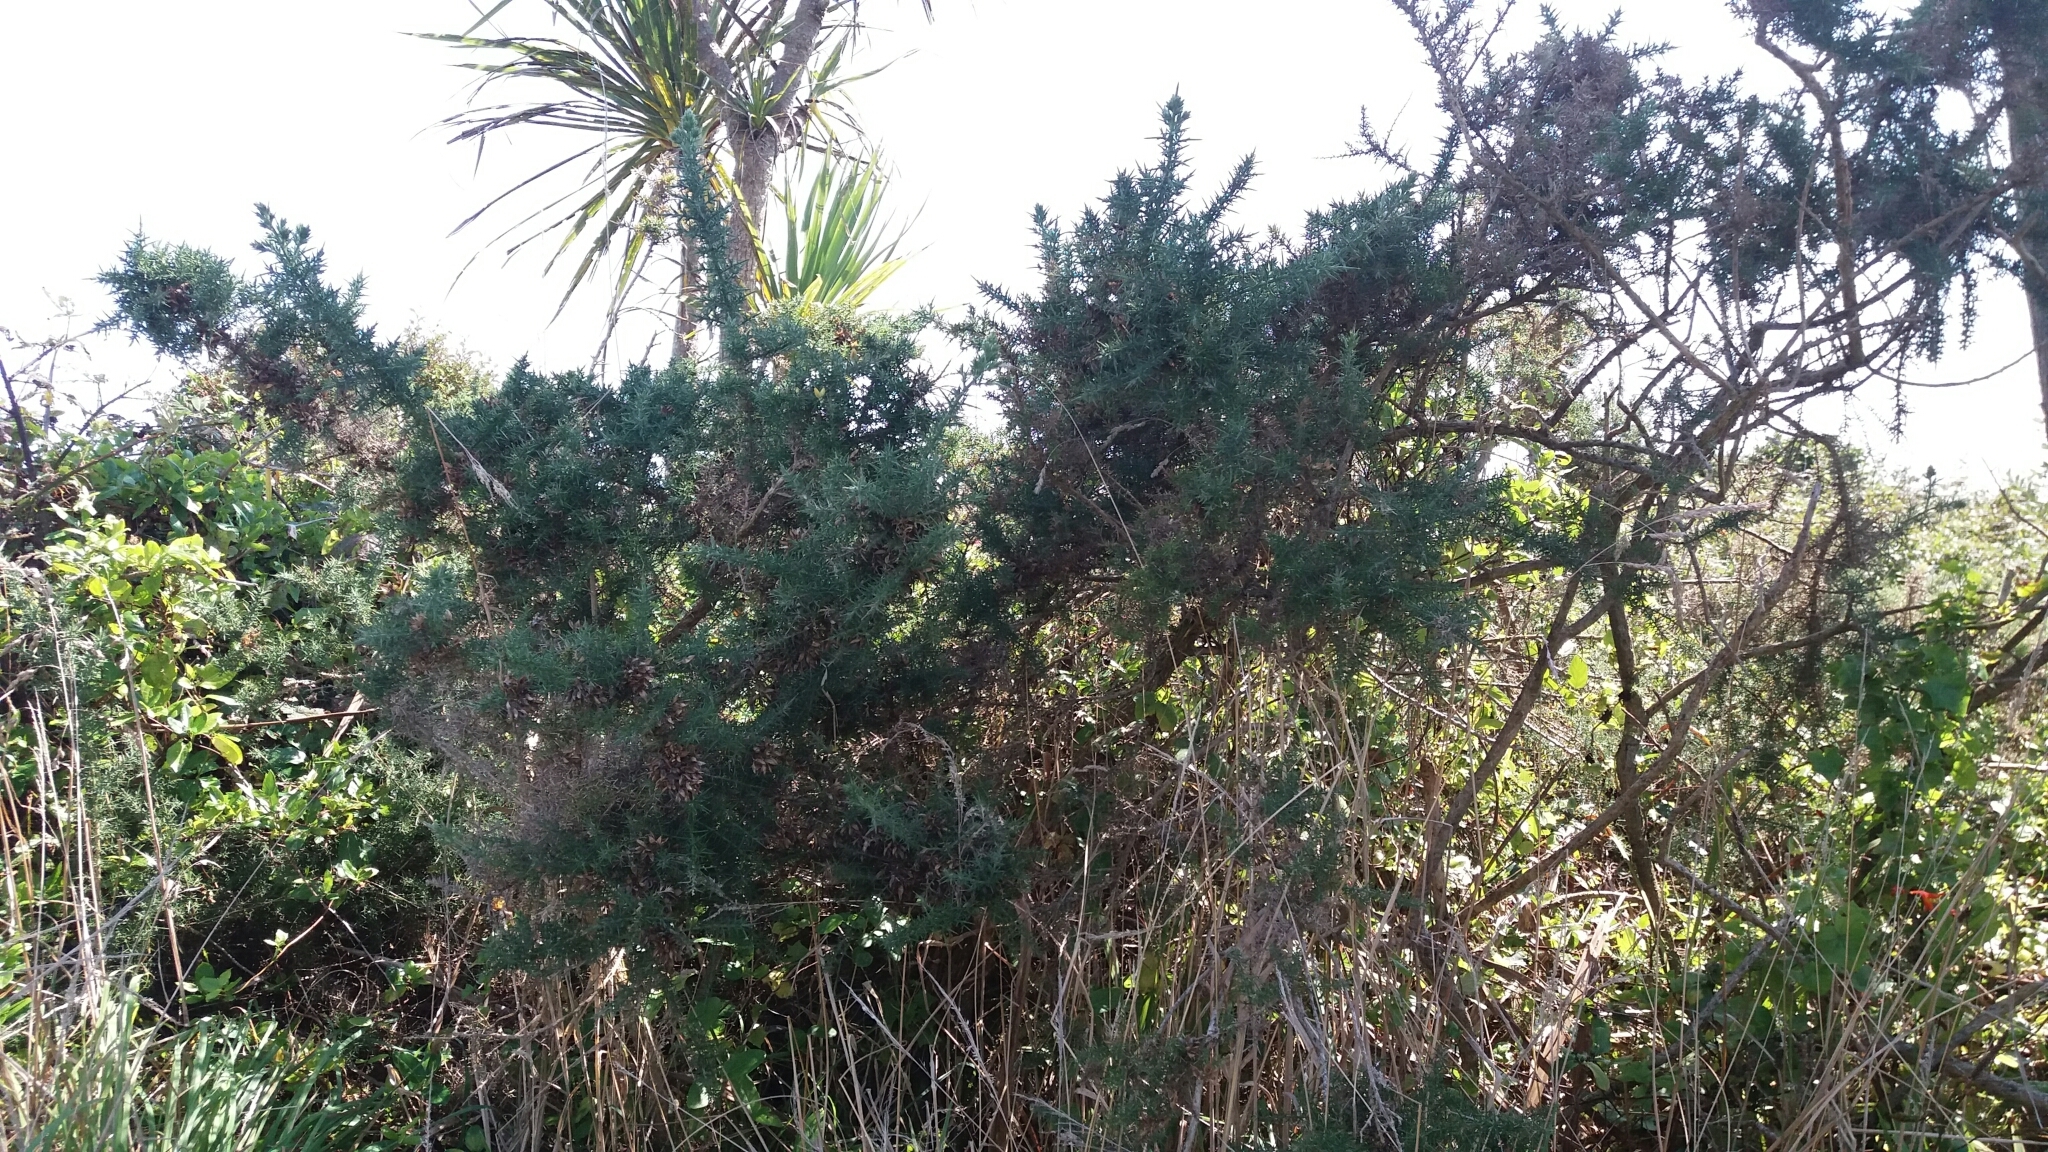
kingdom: Plantae
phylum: Tracheophyta
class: Magnoliopsida
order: Fabales
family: Fabaceae
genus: Ulex
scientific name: Ulex europaeus
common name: Common gorse
